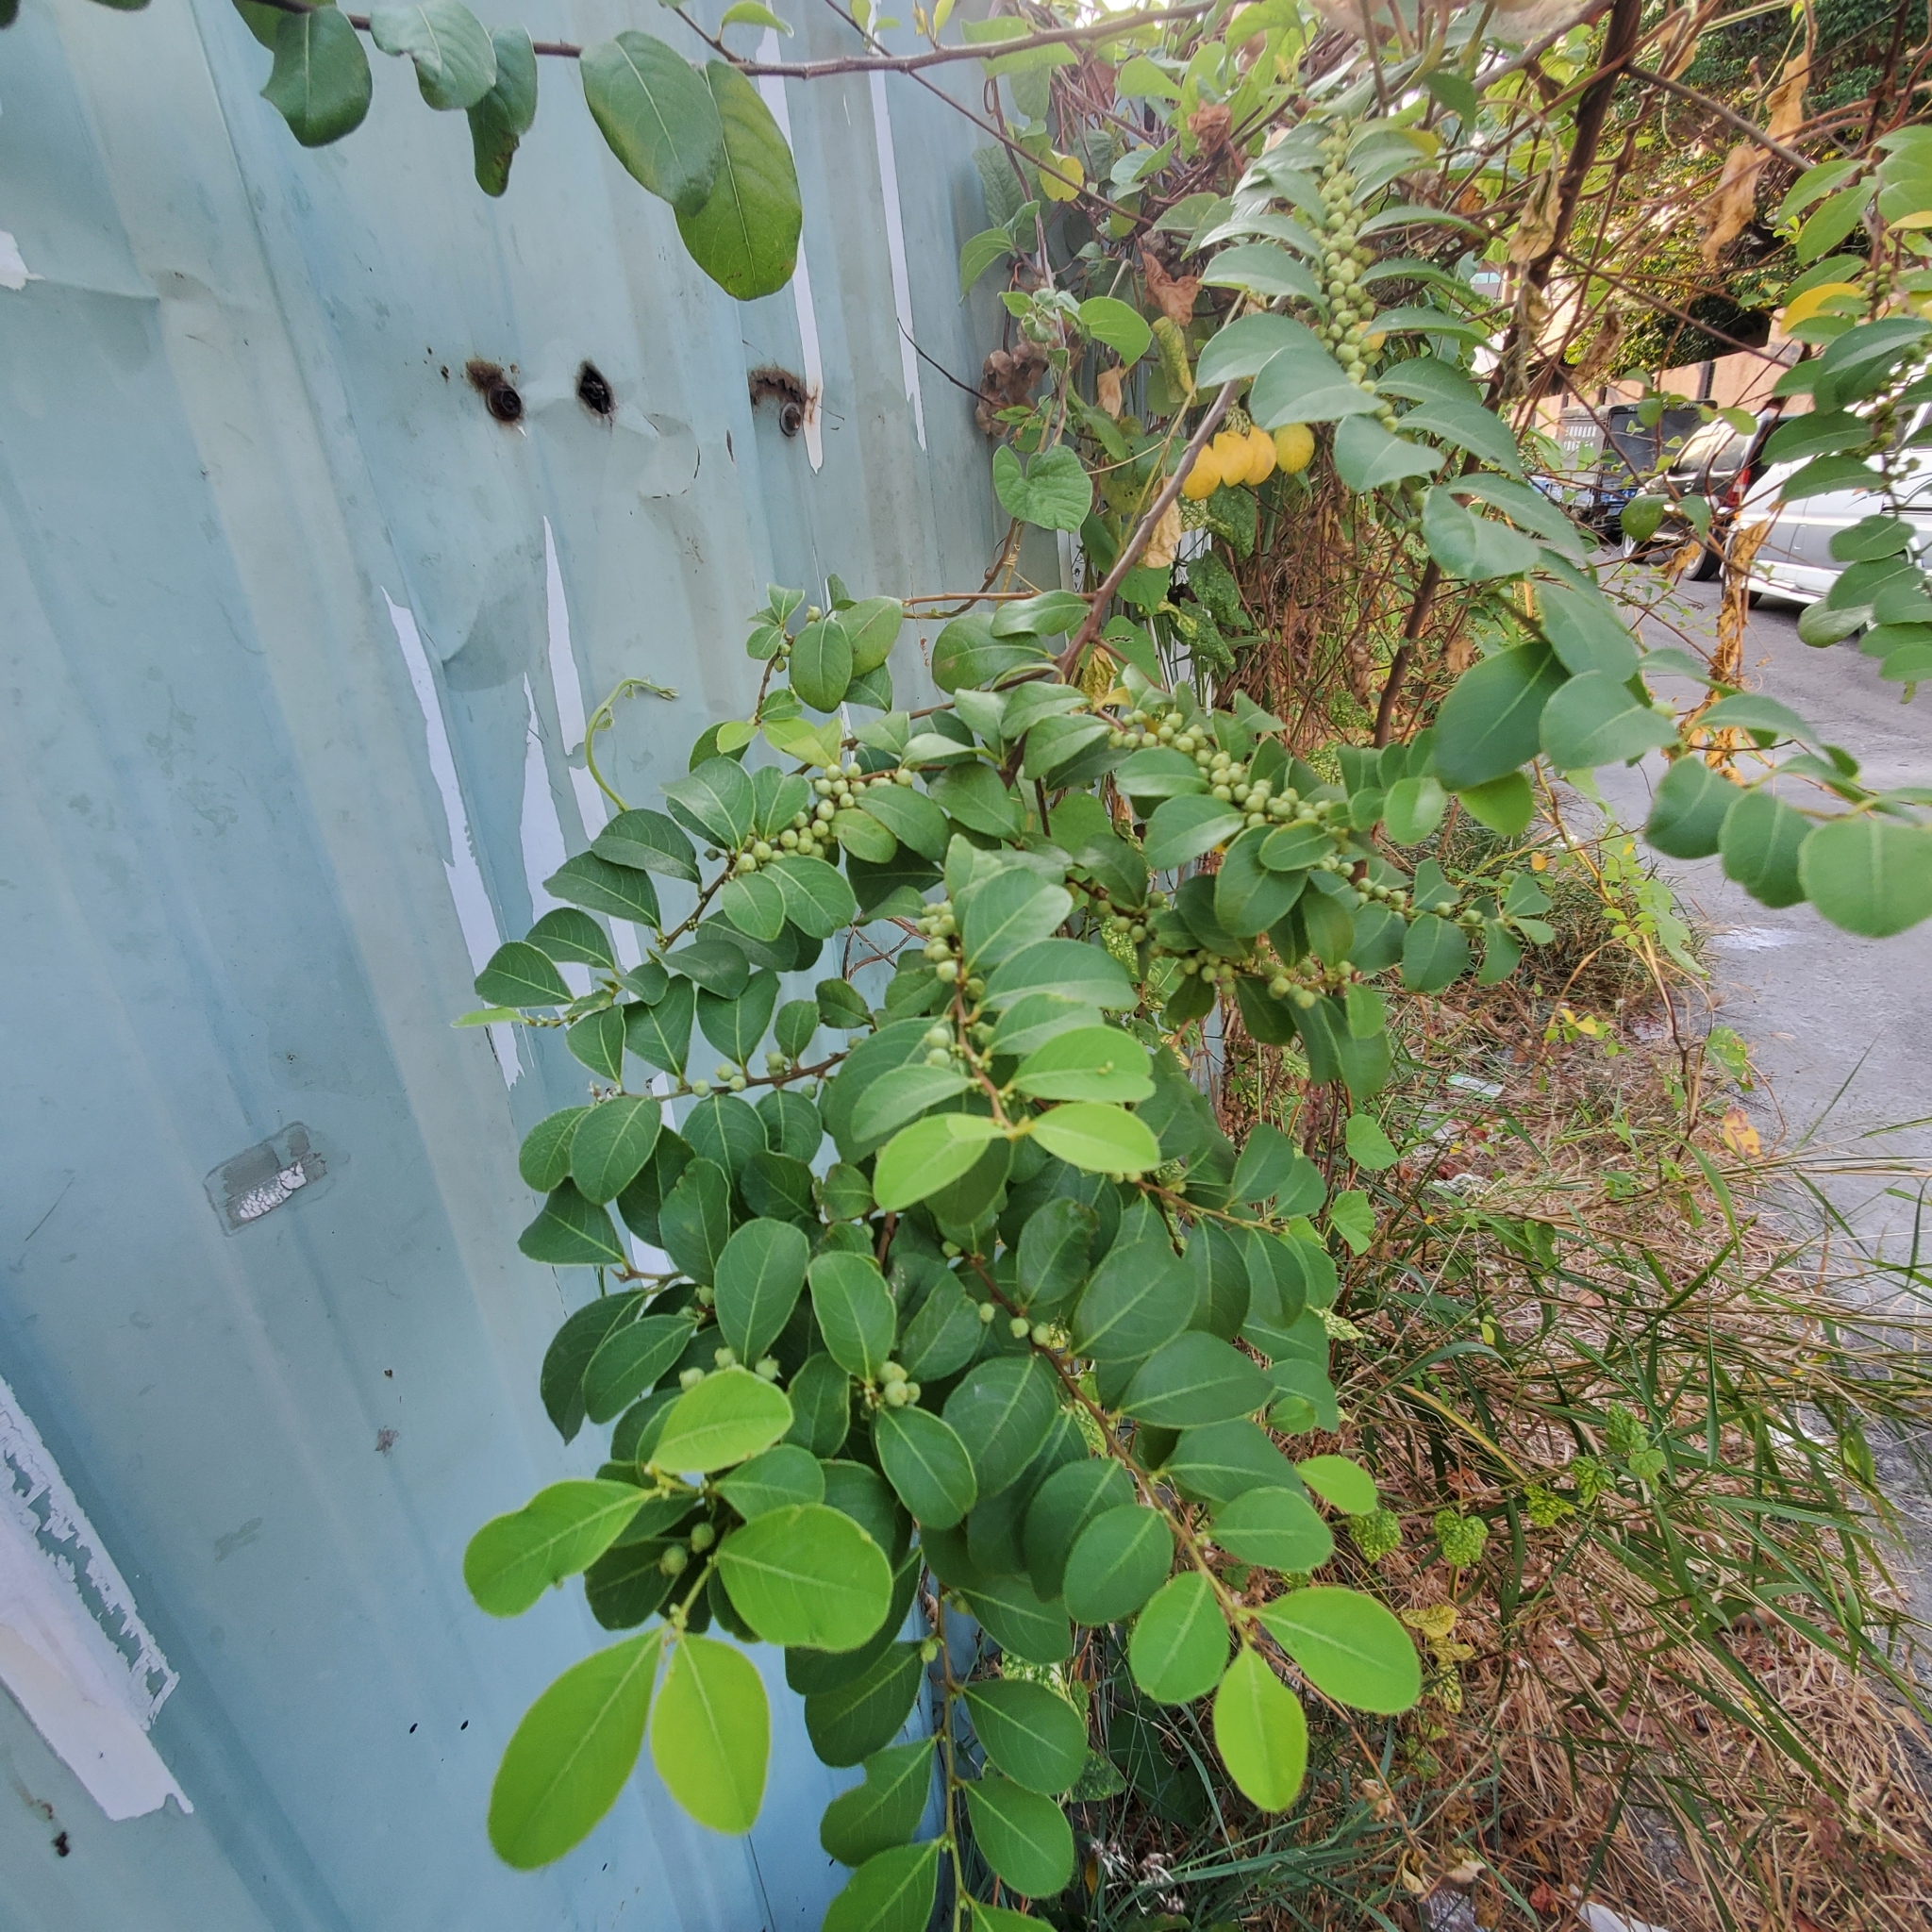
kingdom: Plantae
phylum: Tracheophyta
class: Magnoliopsida
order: Malpighiales
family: Phyllanthaceae
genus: Flueggea
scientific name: Flueggea virosa
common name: Common bushweed
